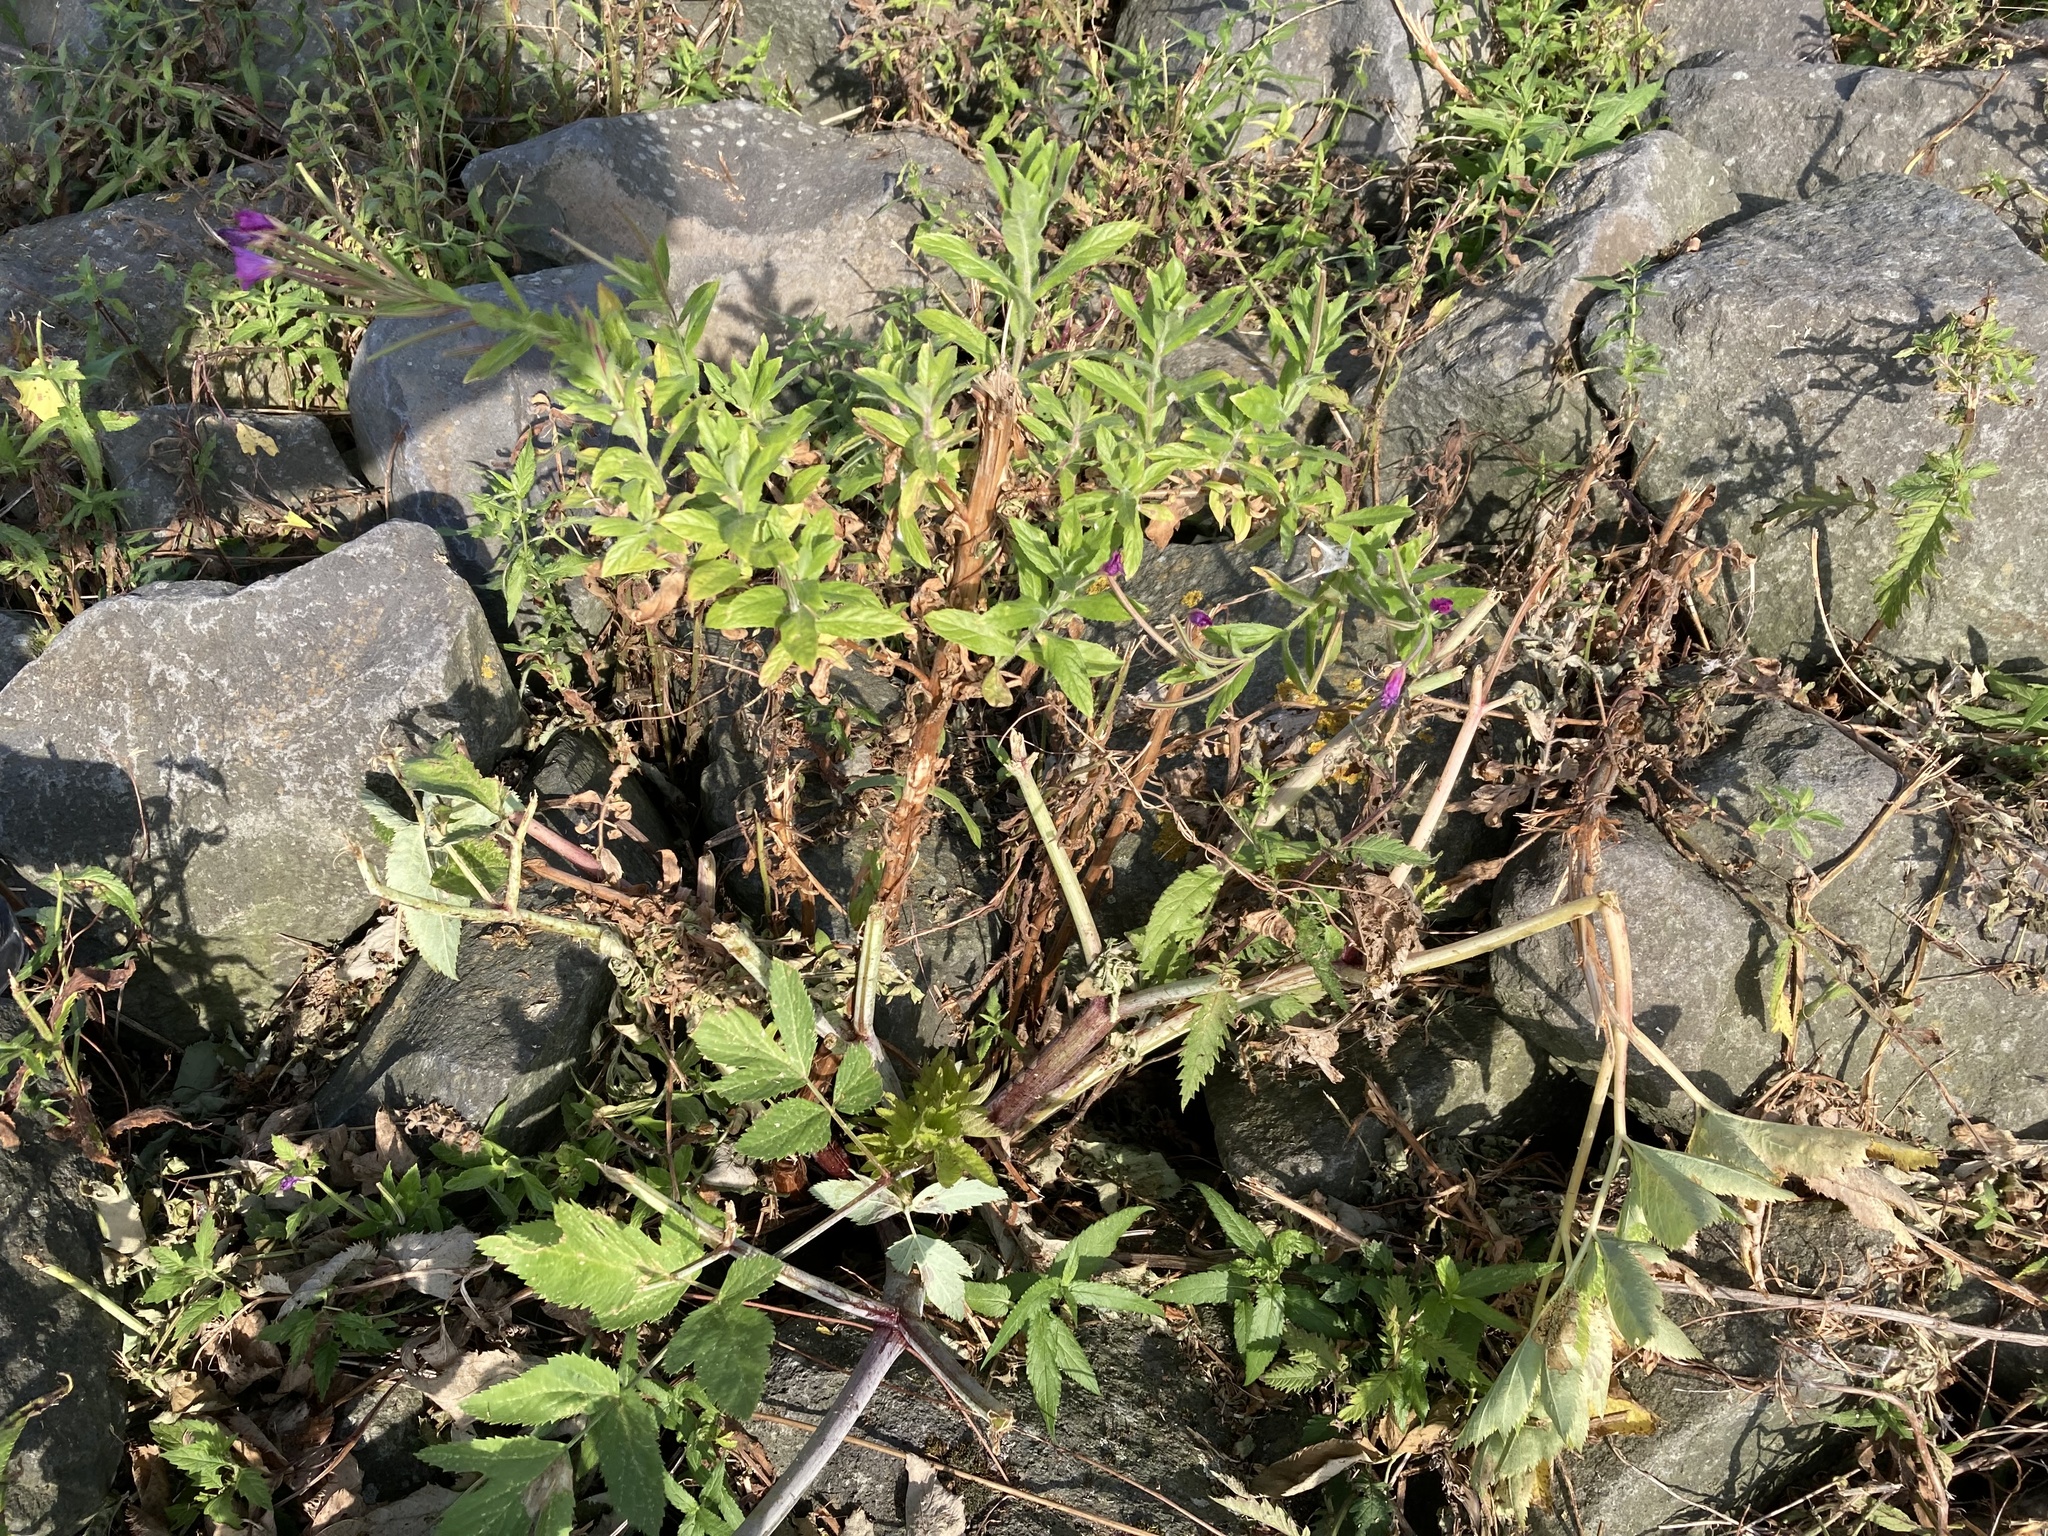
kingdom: Plantae
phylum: Tracheophyta
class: Magnoliopsida
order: Myrtales
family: Onagraceae
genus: Epilobium
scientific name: Epilobium hirsutum
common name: Great willowherb
